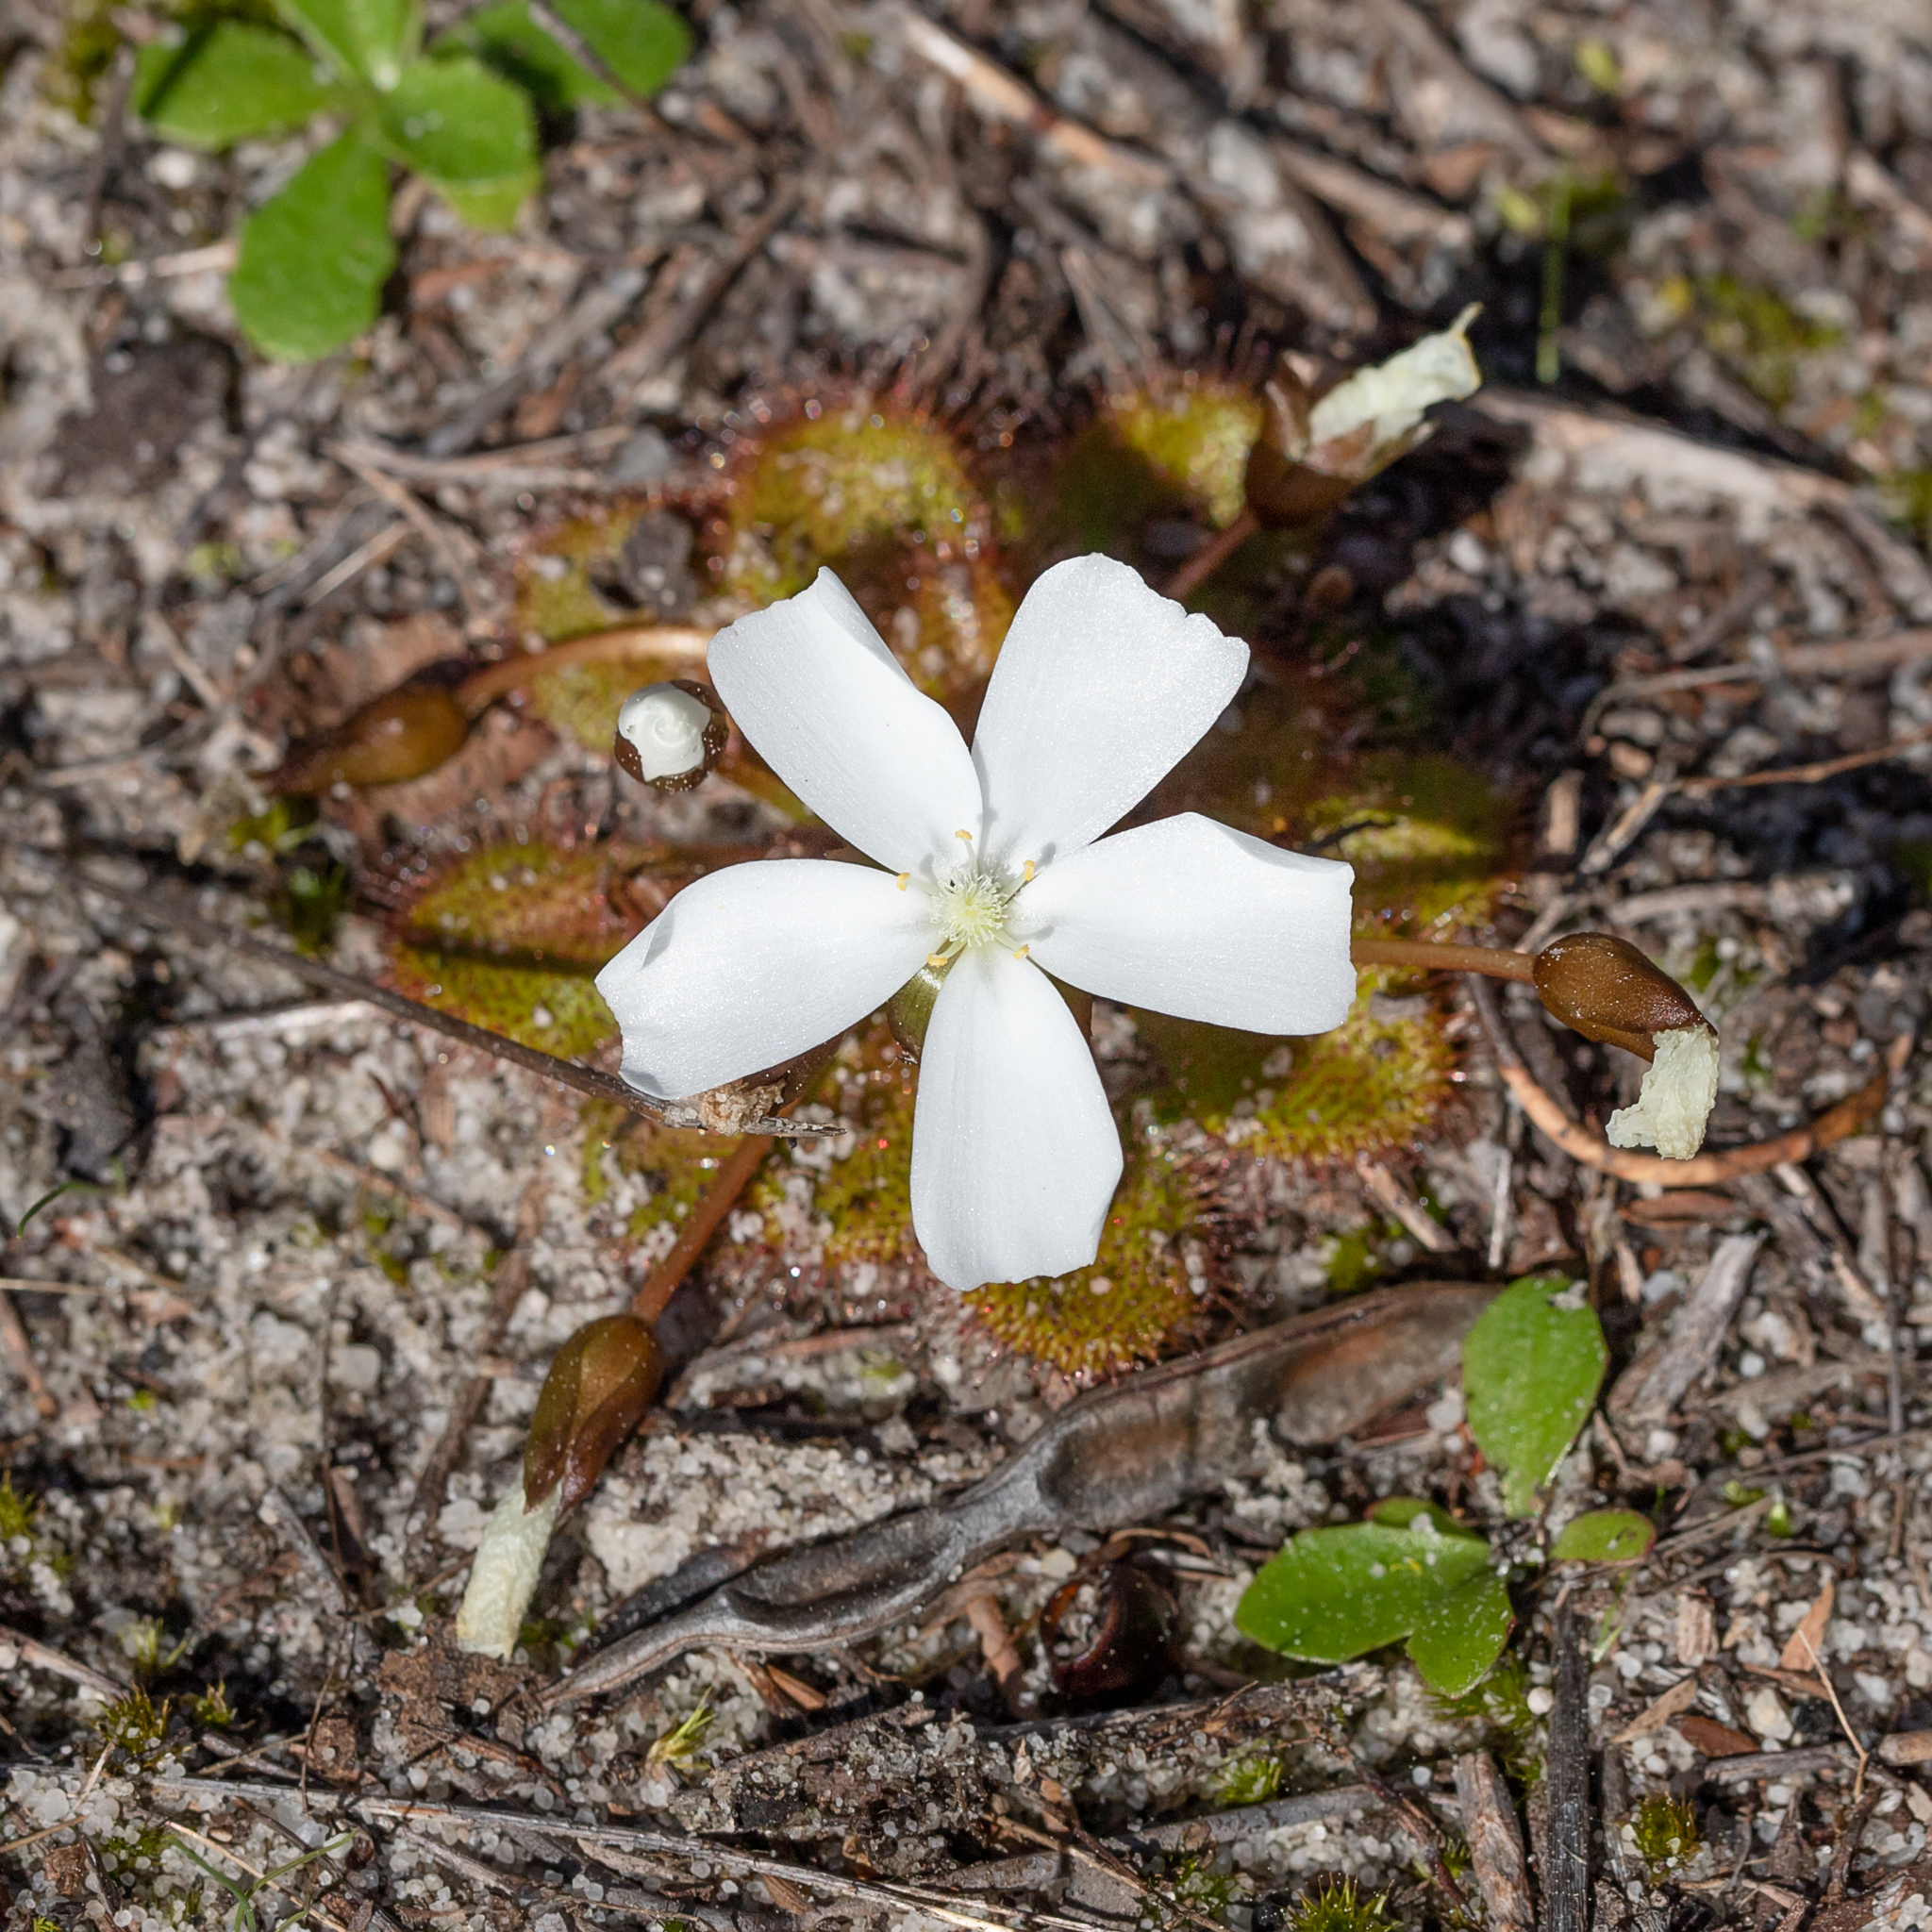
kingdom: Plantae
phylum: Tracheophyta
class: Magnoliopsida
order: Caryophyllales
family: Droseraceae
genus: Drosera
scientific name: Drosera whittakeri
